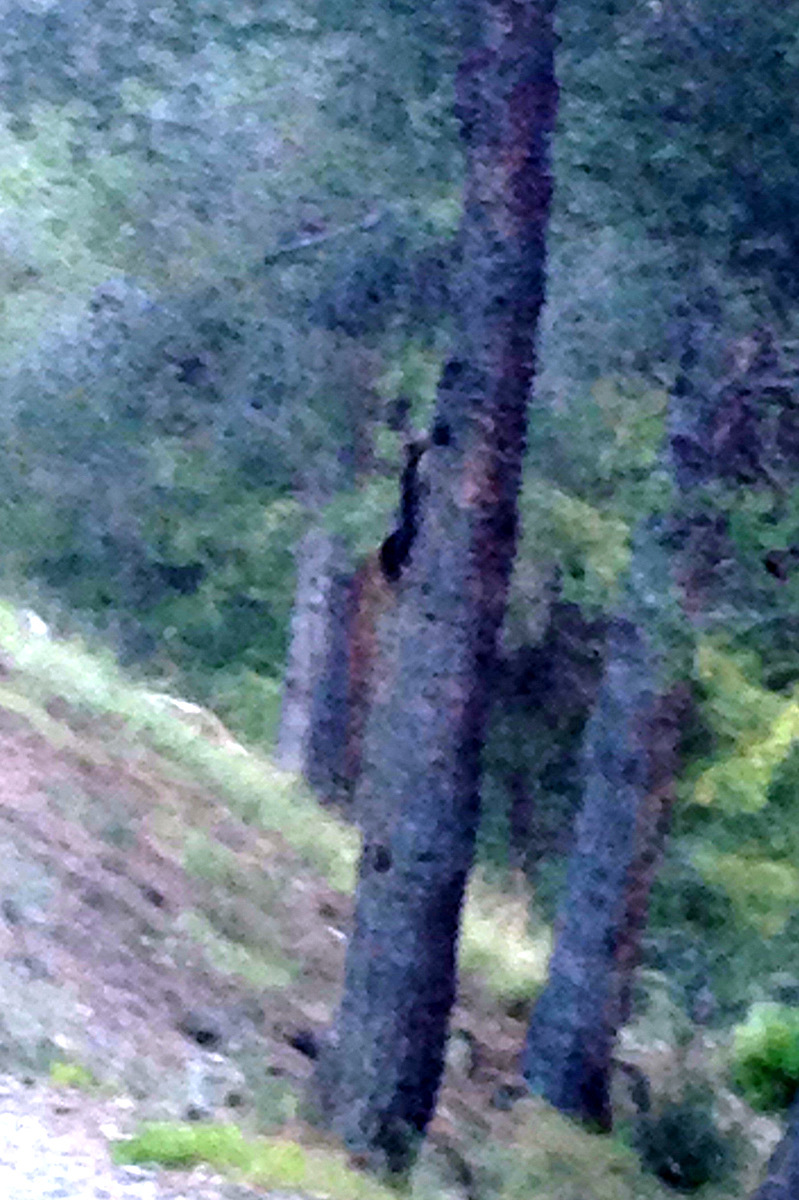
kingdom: Animalia
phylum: Chordata
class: Mammalia
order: Rodentia
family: Sciuridae
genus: Sciurus
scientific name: Sciurus vulgaris
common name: Eurasian red squirrel
